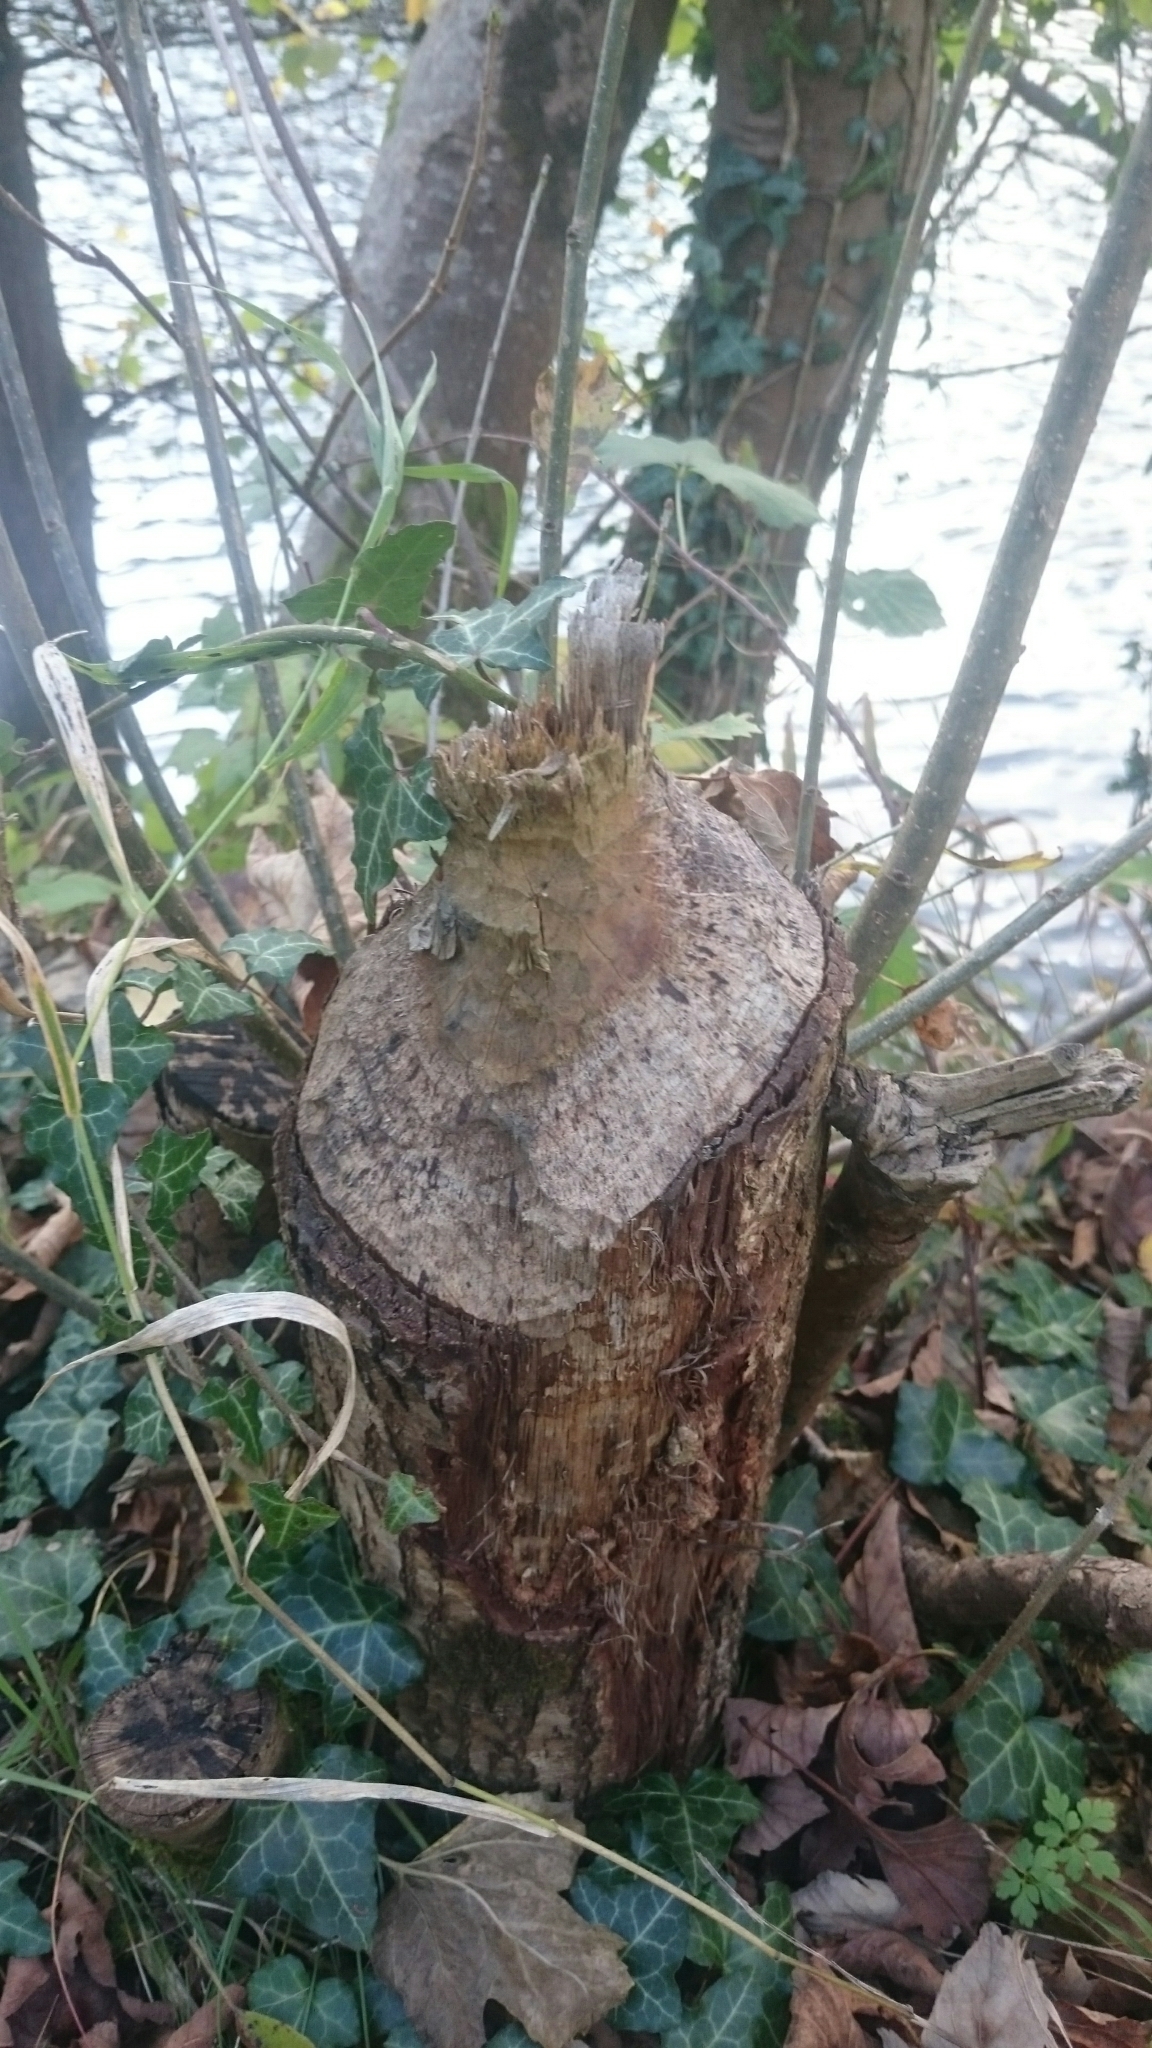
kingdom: Animalia
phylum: Chordata
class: Mammalia
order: Rodentia
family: Castoridae
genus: Castor
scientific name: Castor fiber
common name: Eurasian beaver
